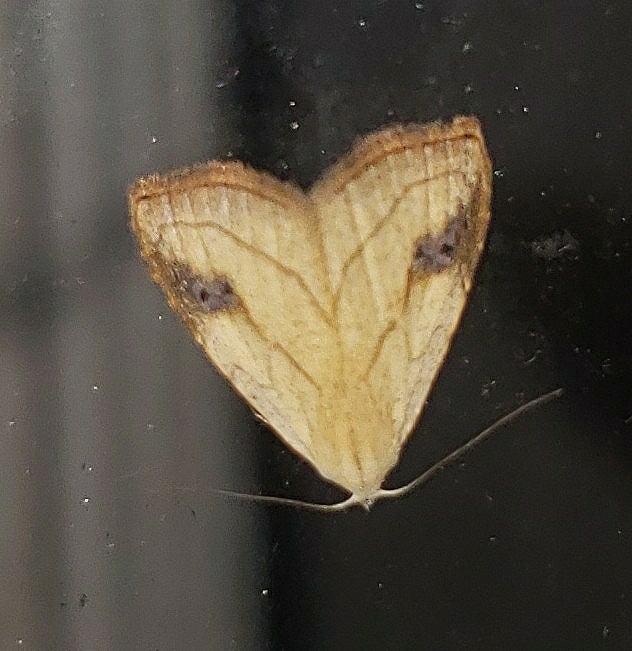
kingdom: Animalia
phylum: Arthropoda
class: Insecta
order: Lepidoptera
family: Erebidae
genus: Rivula
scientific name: Rivula propinqualis
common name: Spotted grass moth
